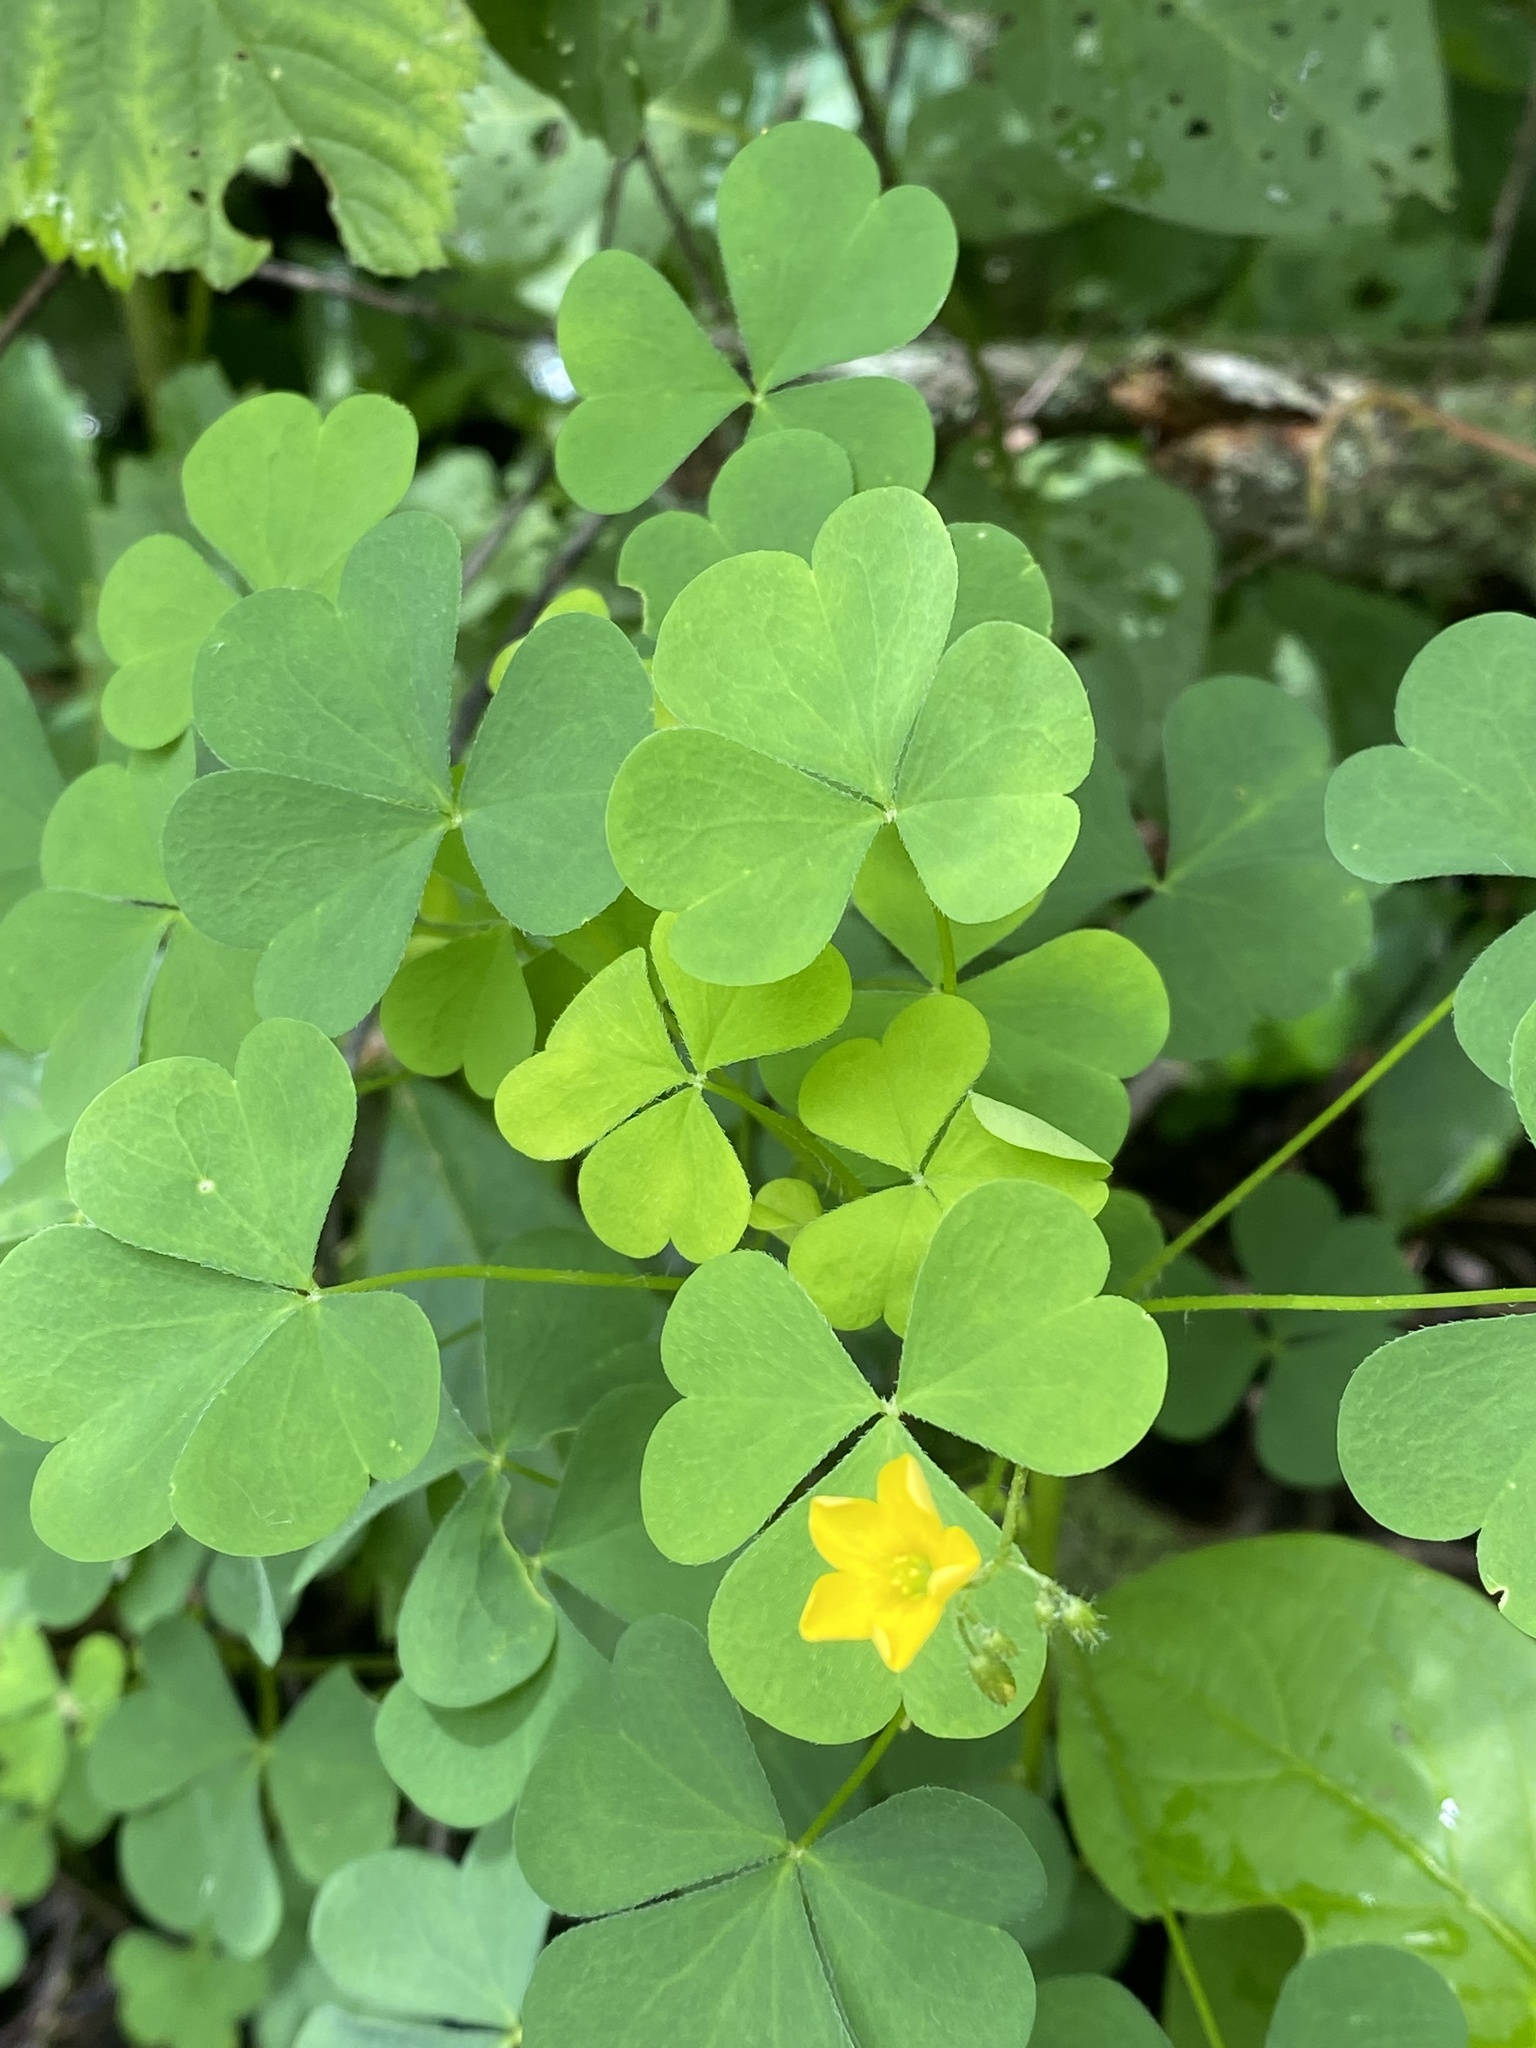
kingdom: Plantae
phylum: Tracheophyta
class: Magnoliopsida
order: Oxalidales
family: Oxalidaceae
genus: Oxalis
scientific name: Oxalis stricta
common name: Upright yellow-sorrel
